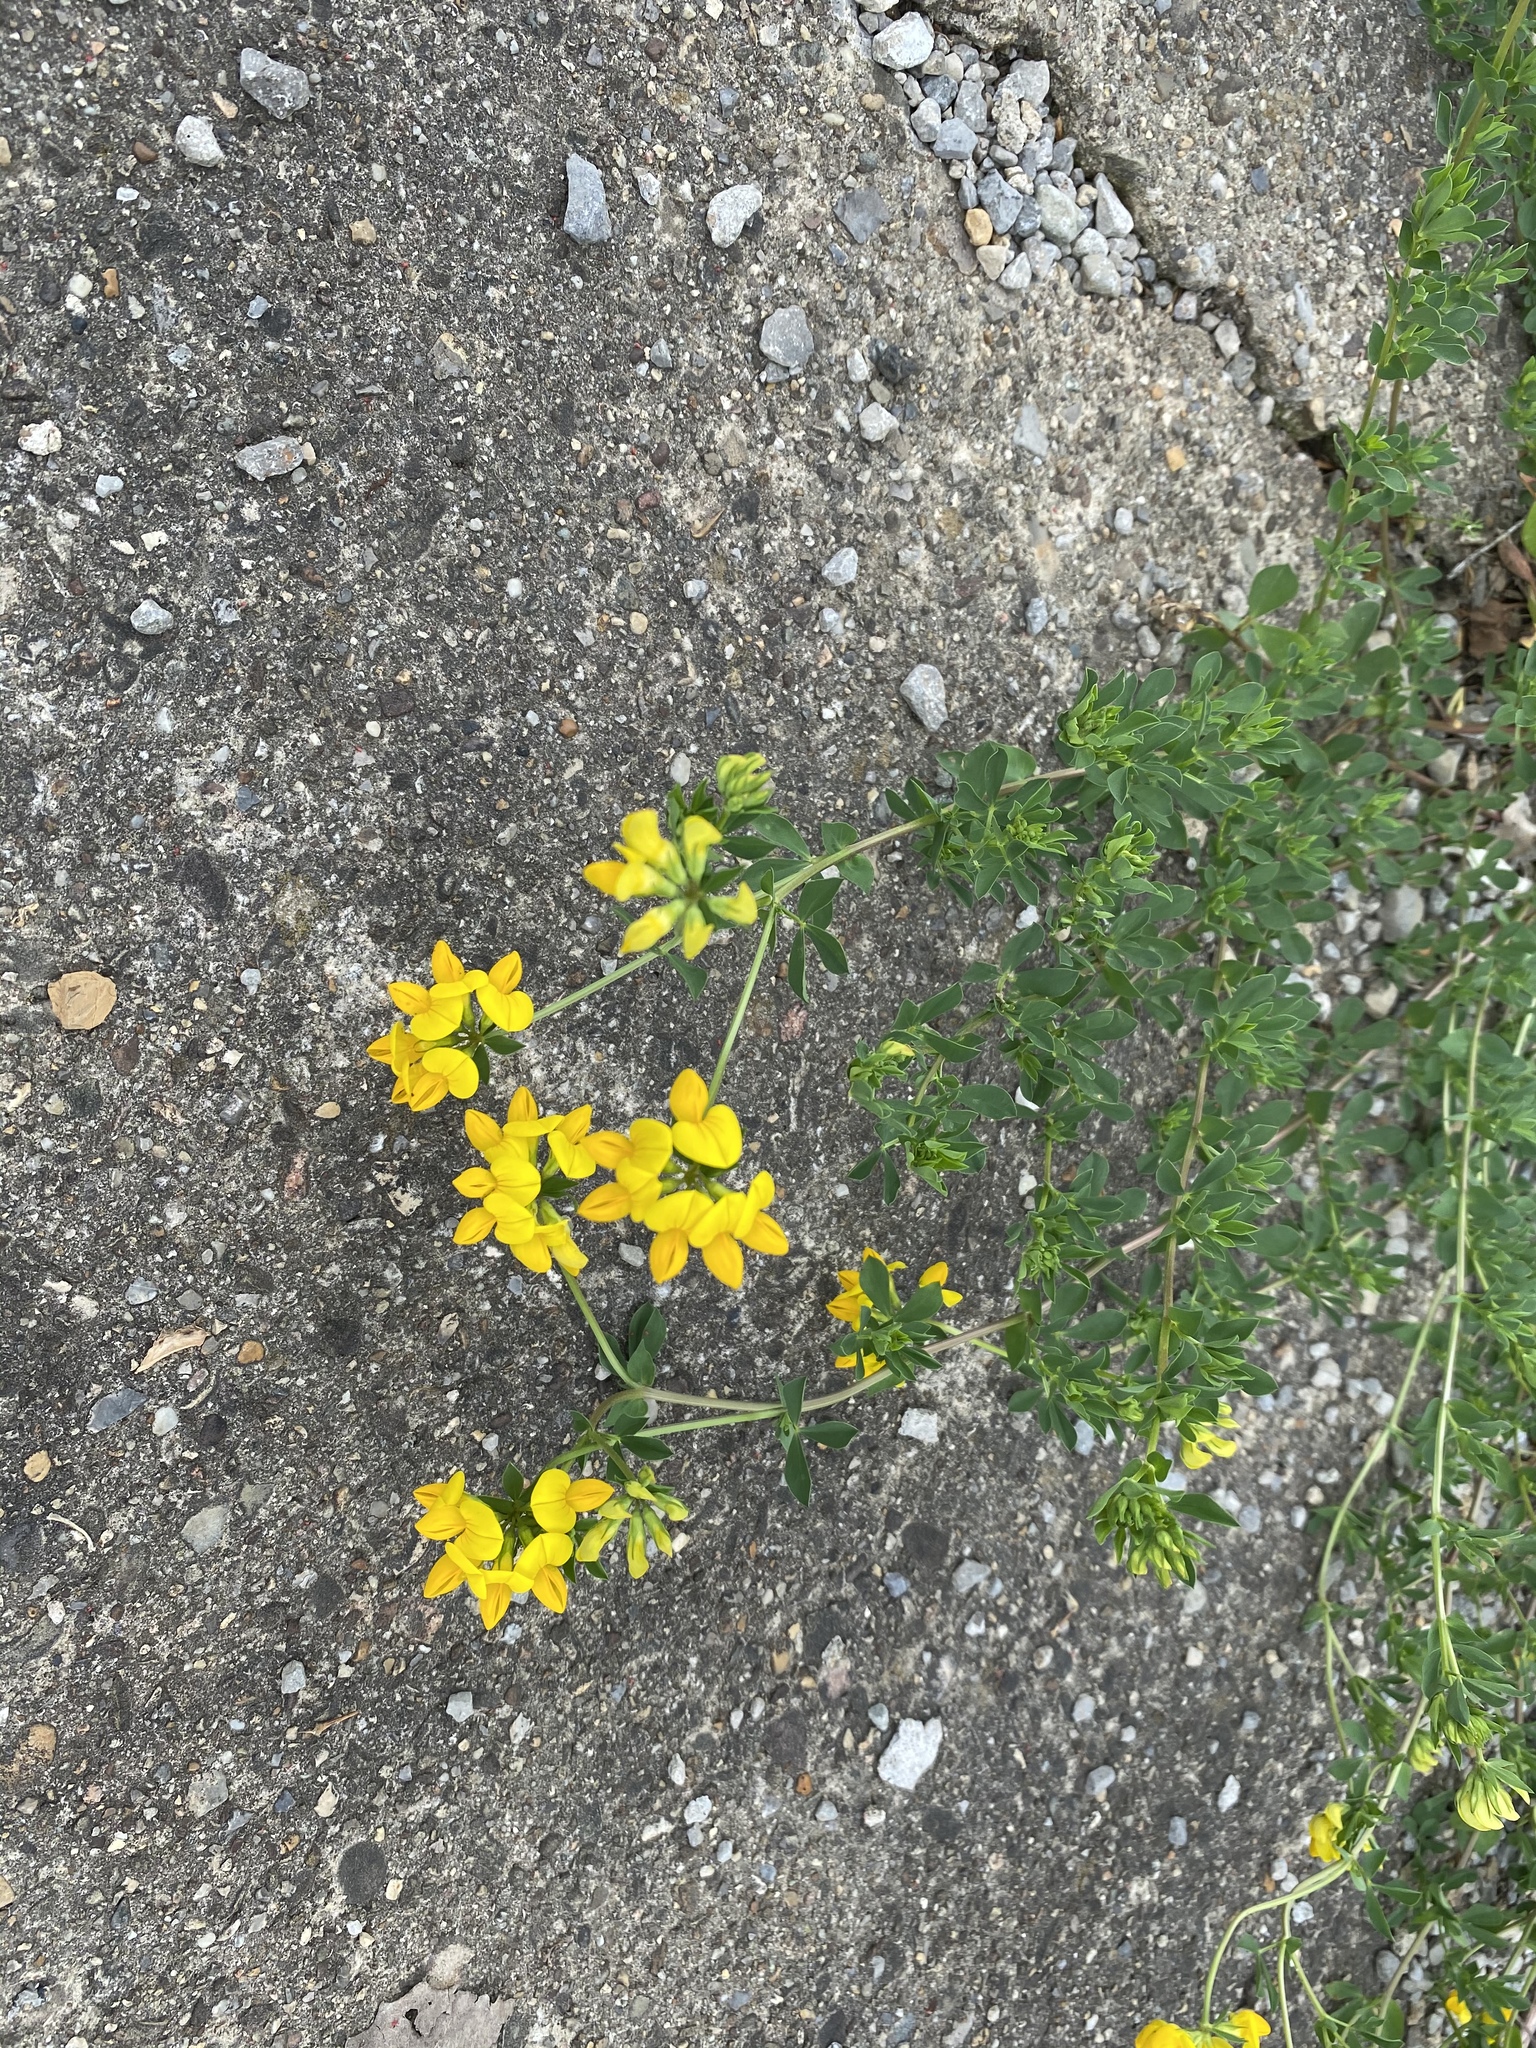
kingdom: Plantae
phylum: Tracheophyta
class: Magnoliopsida
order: Fabales
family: Fabaceae
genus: Lotus
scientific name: Lotus corniculatus
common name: Common bird's-foot-trefoil
